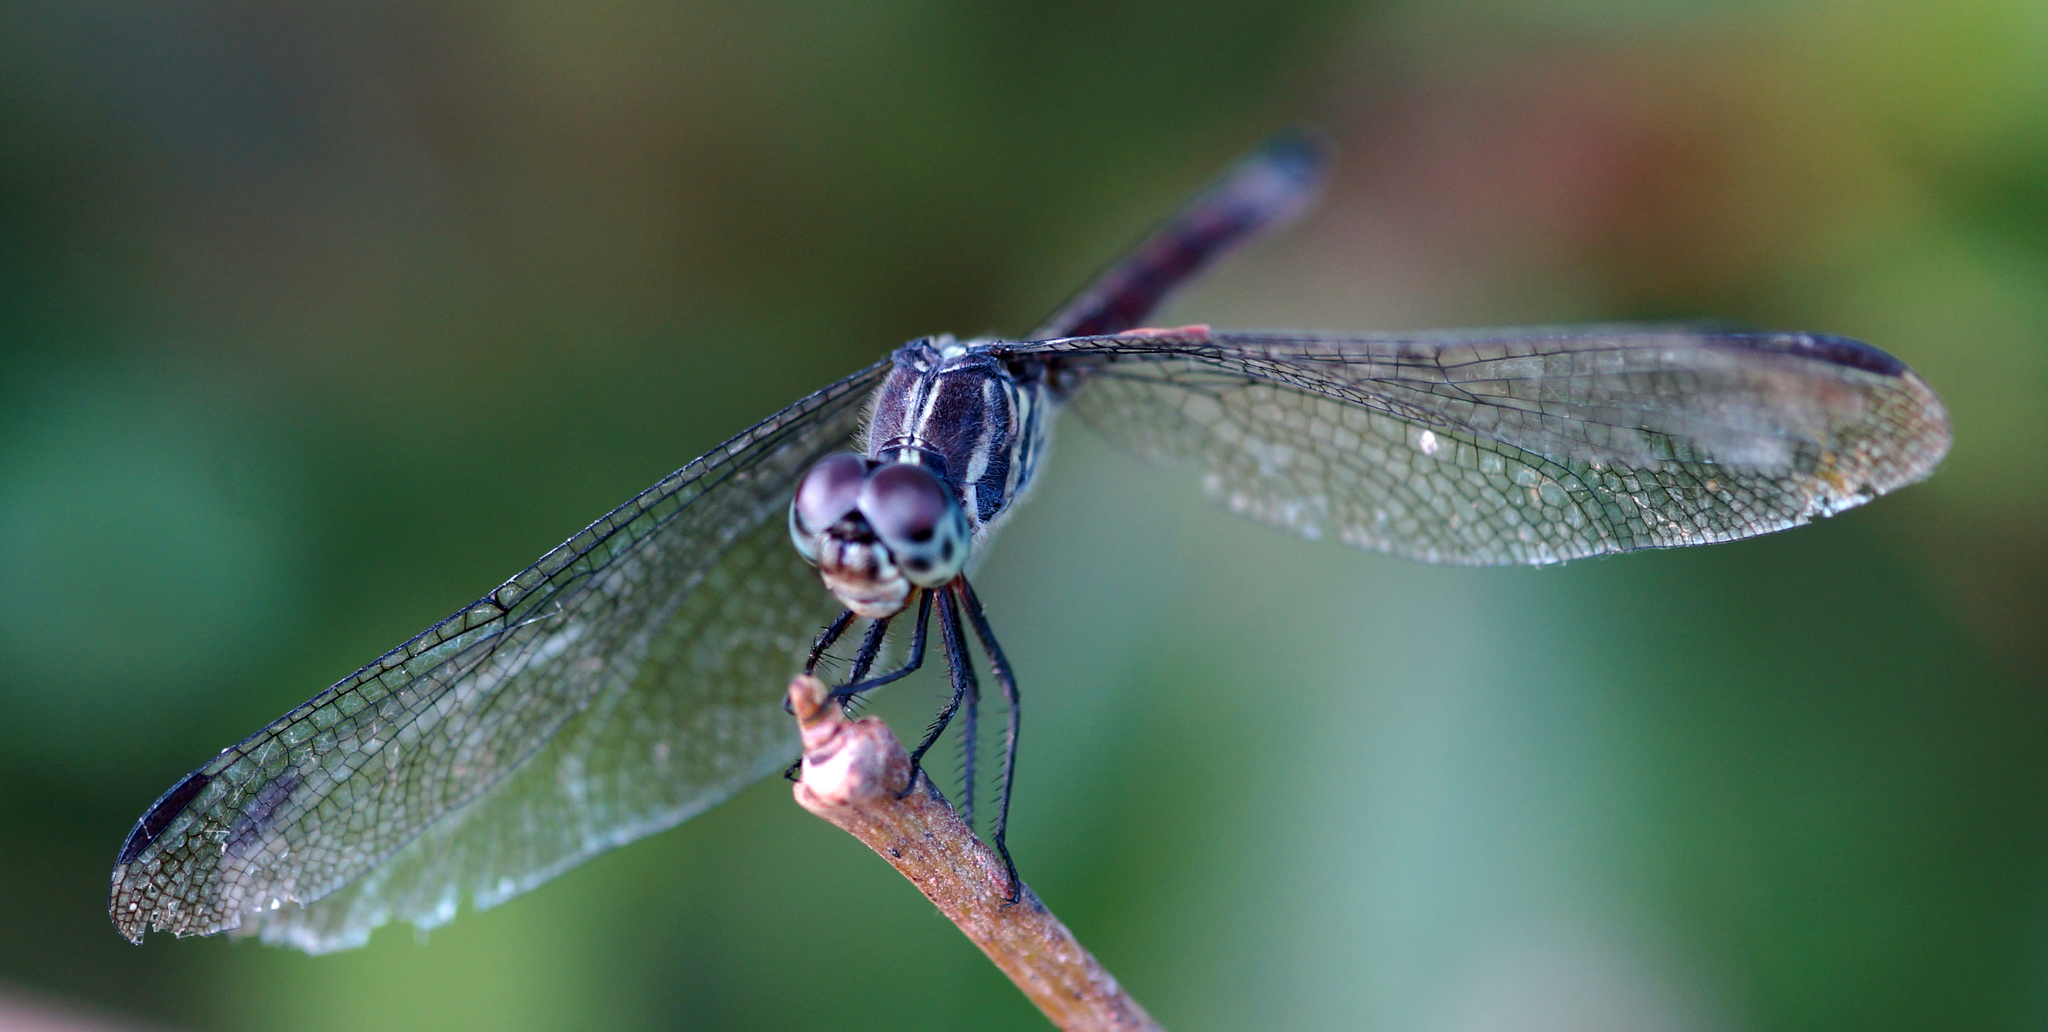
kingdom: Animalia
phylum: Arthropoda
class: Insecta
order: Odonata
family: Libellulidae
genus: Lathrecista
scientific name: Lathrecista asiatica
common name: Scarlet grenadier
